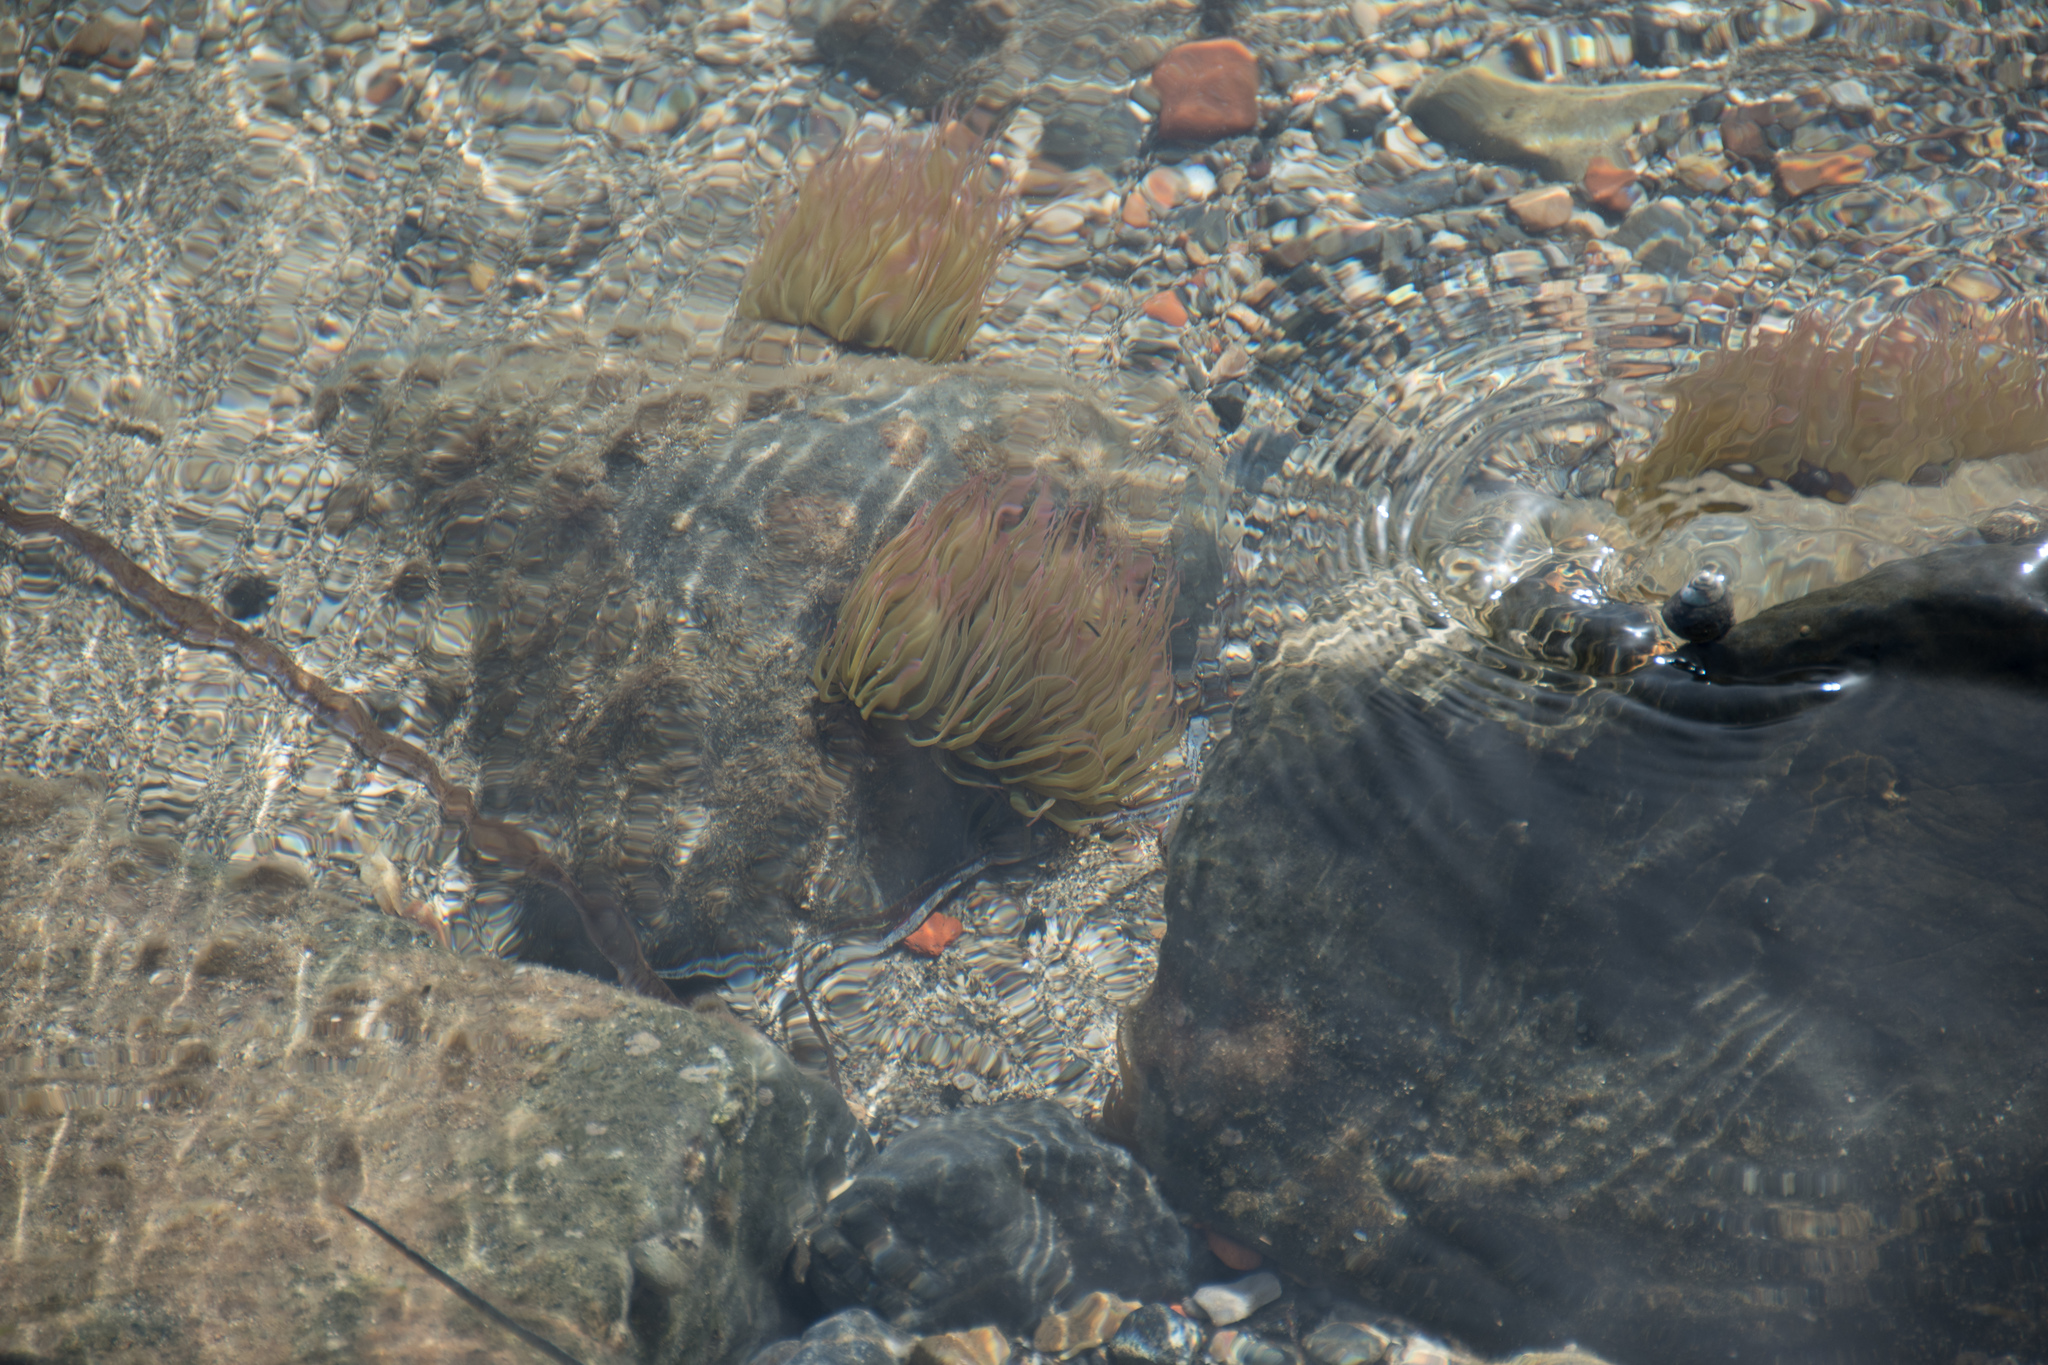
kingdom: Animalia
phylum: Cnidaria
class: Anthozoa
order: Actiniaria
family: Actiniidae
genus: Anemonia
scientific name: Anemonia viridis
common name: Snakelocks anemone
